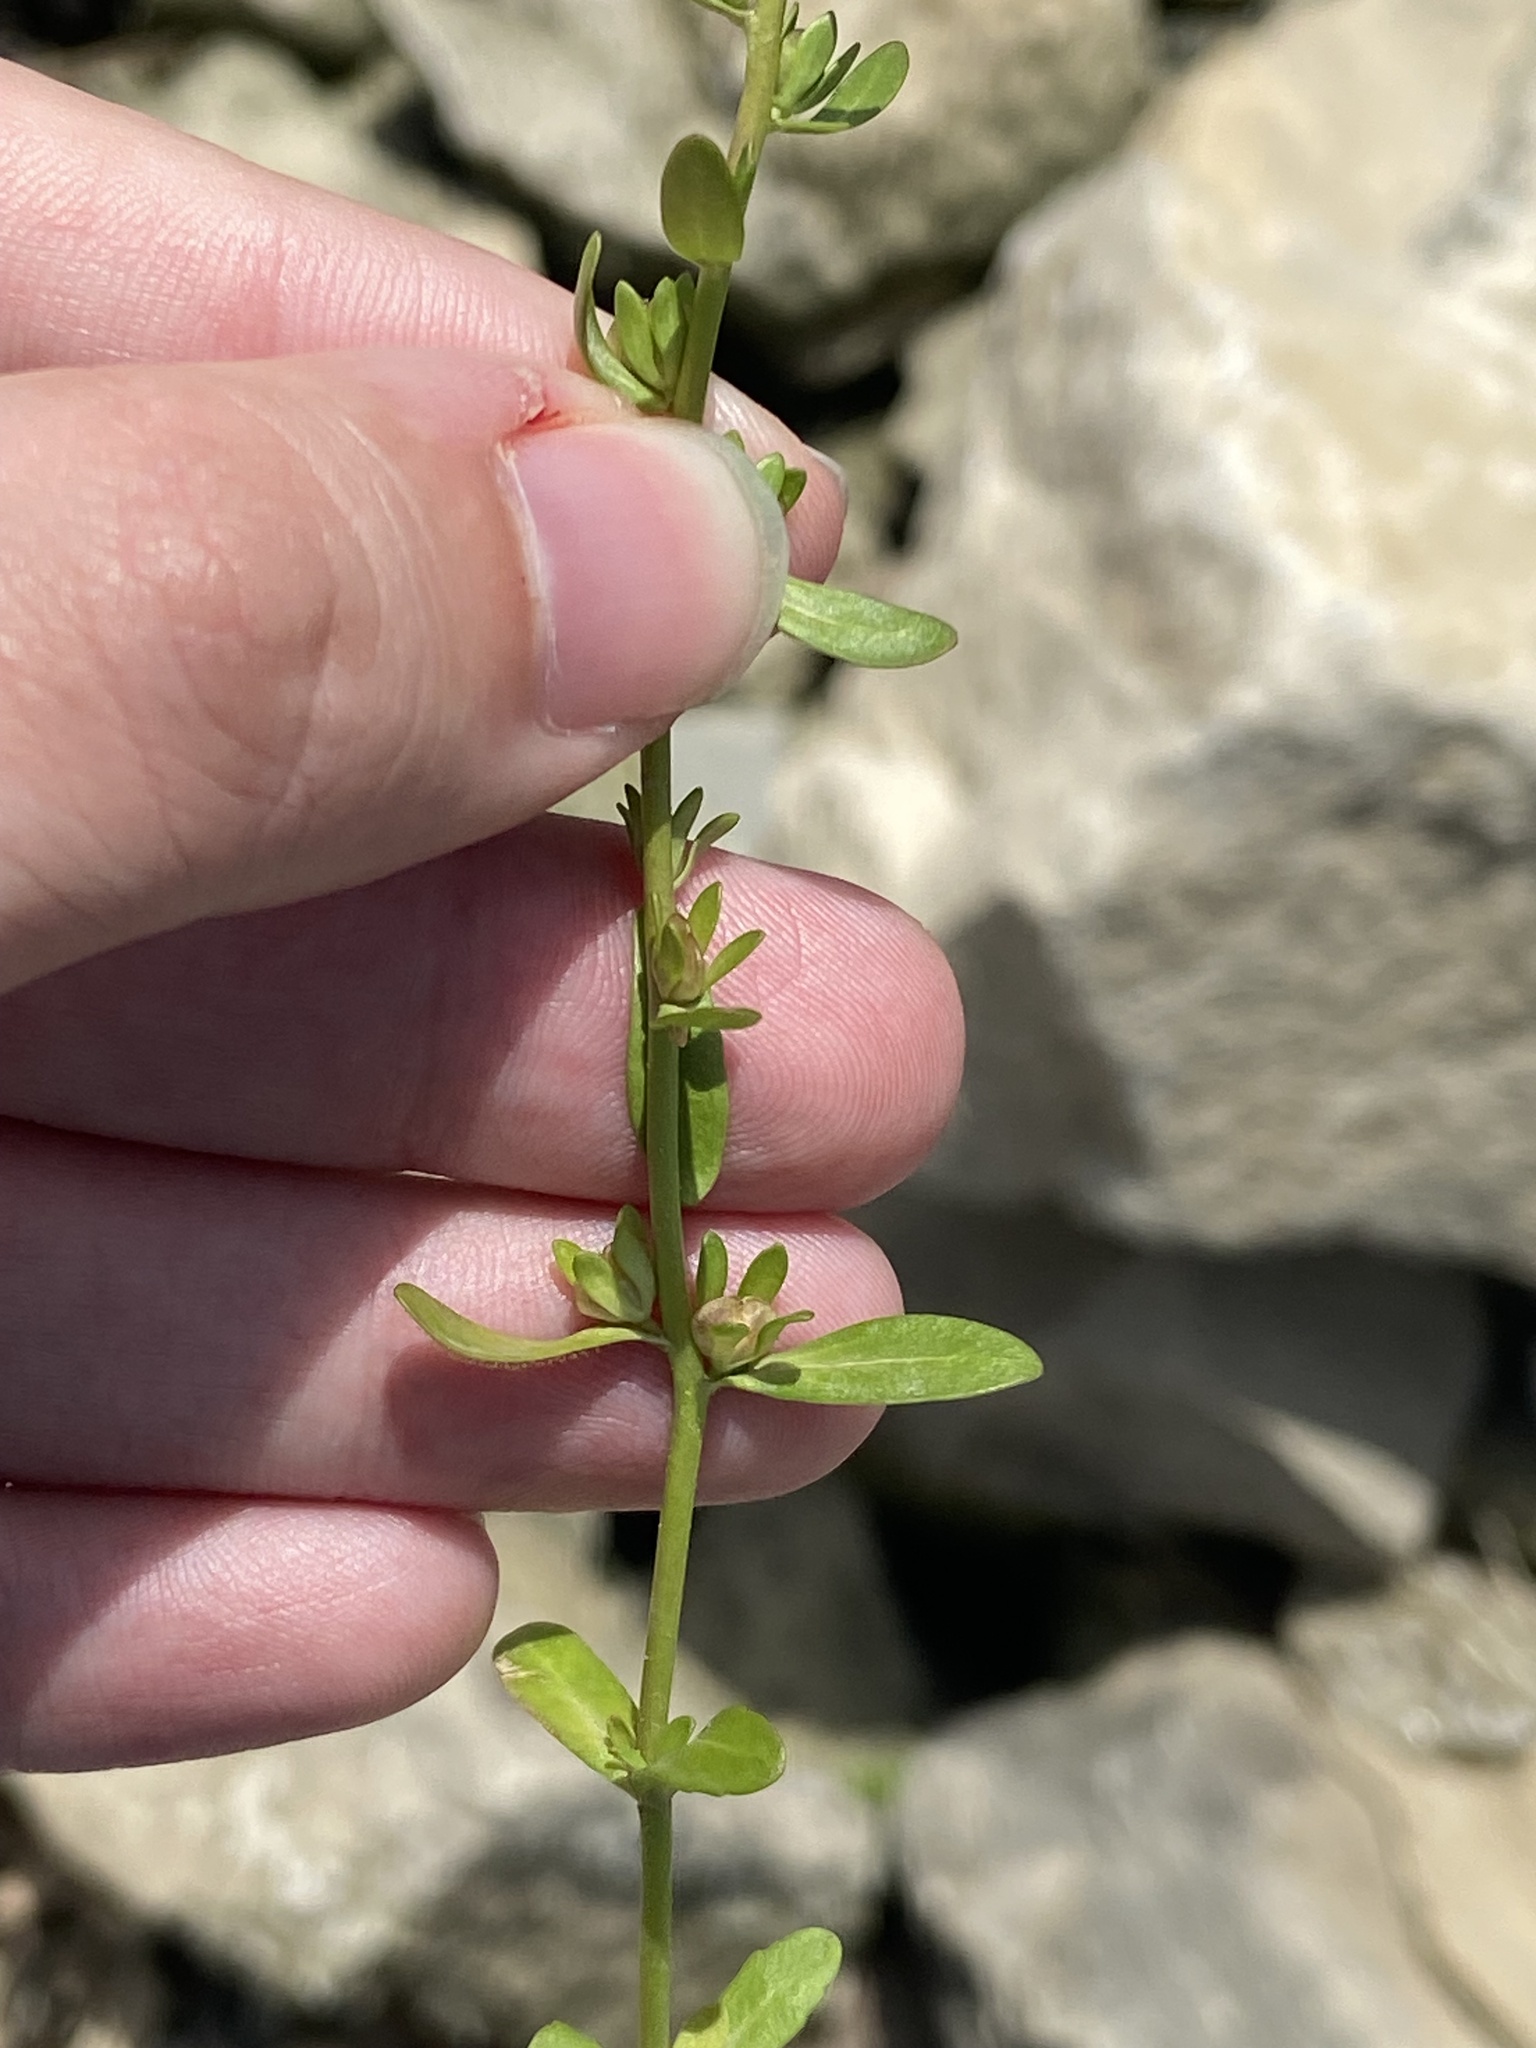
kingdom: Plantae
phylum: Tracheophyta
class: Magnoliopsida
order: Lamiales
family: Plantaginaceae
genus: Veronica
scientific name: Veronica peregrina
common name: Neckweed
